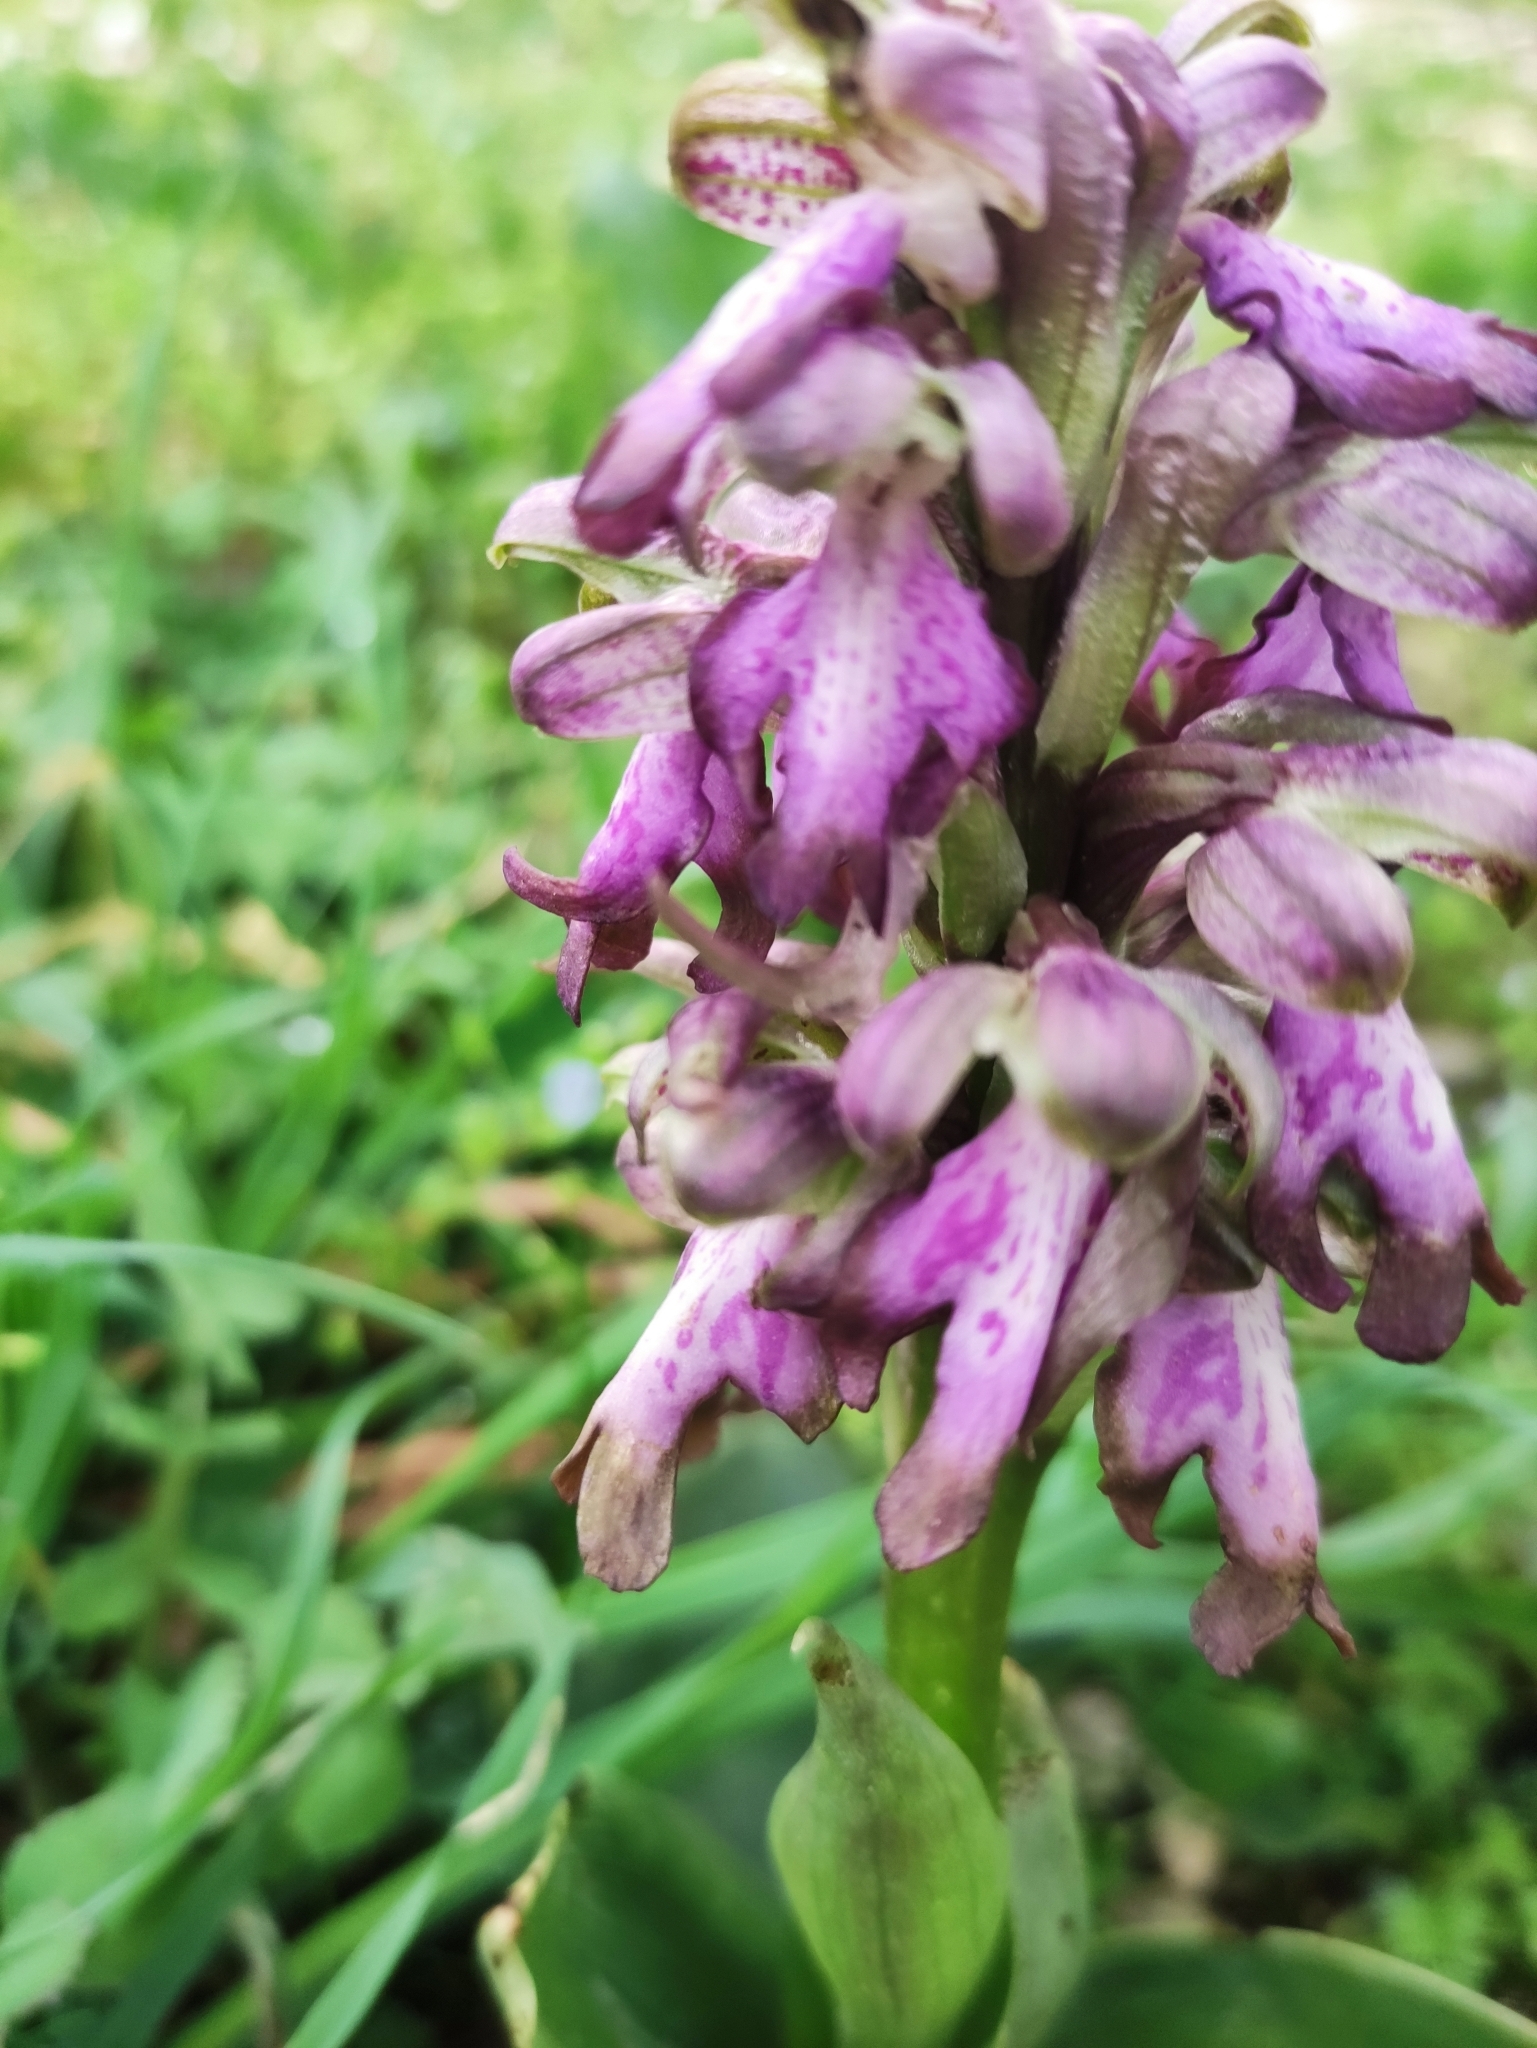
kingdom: Plantae
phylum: Tracheophyta
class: Liliopsida
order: Asparagales
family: Orchidaceae
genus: Himantoglossum
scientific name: Himantoglossum robertianum
